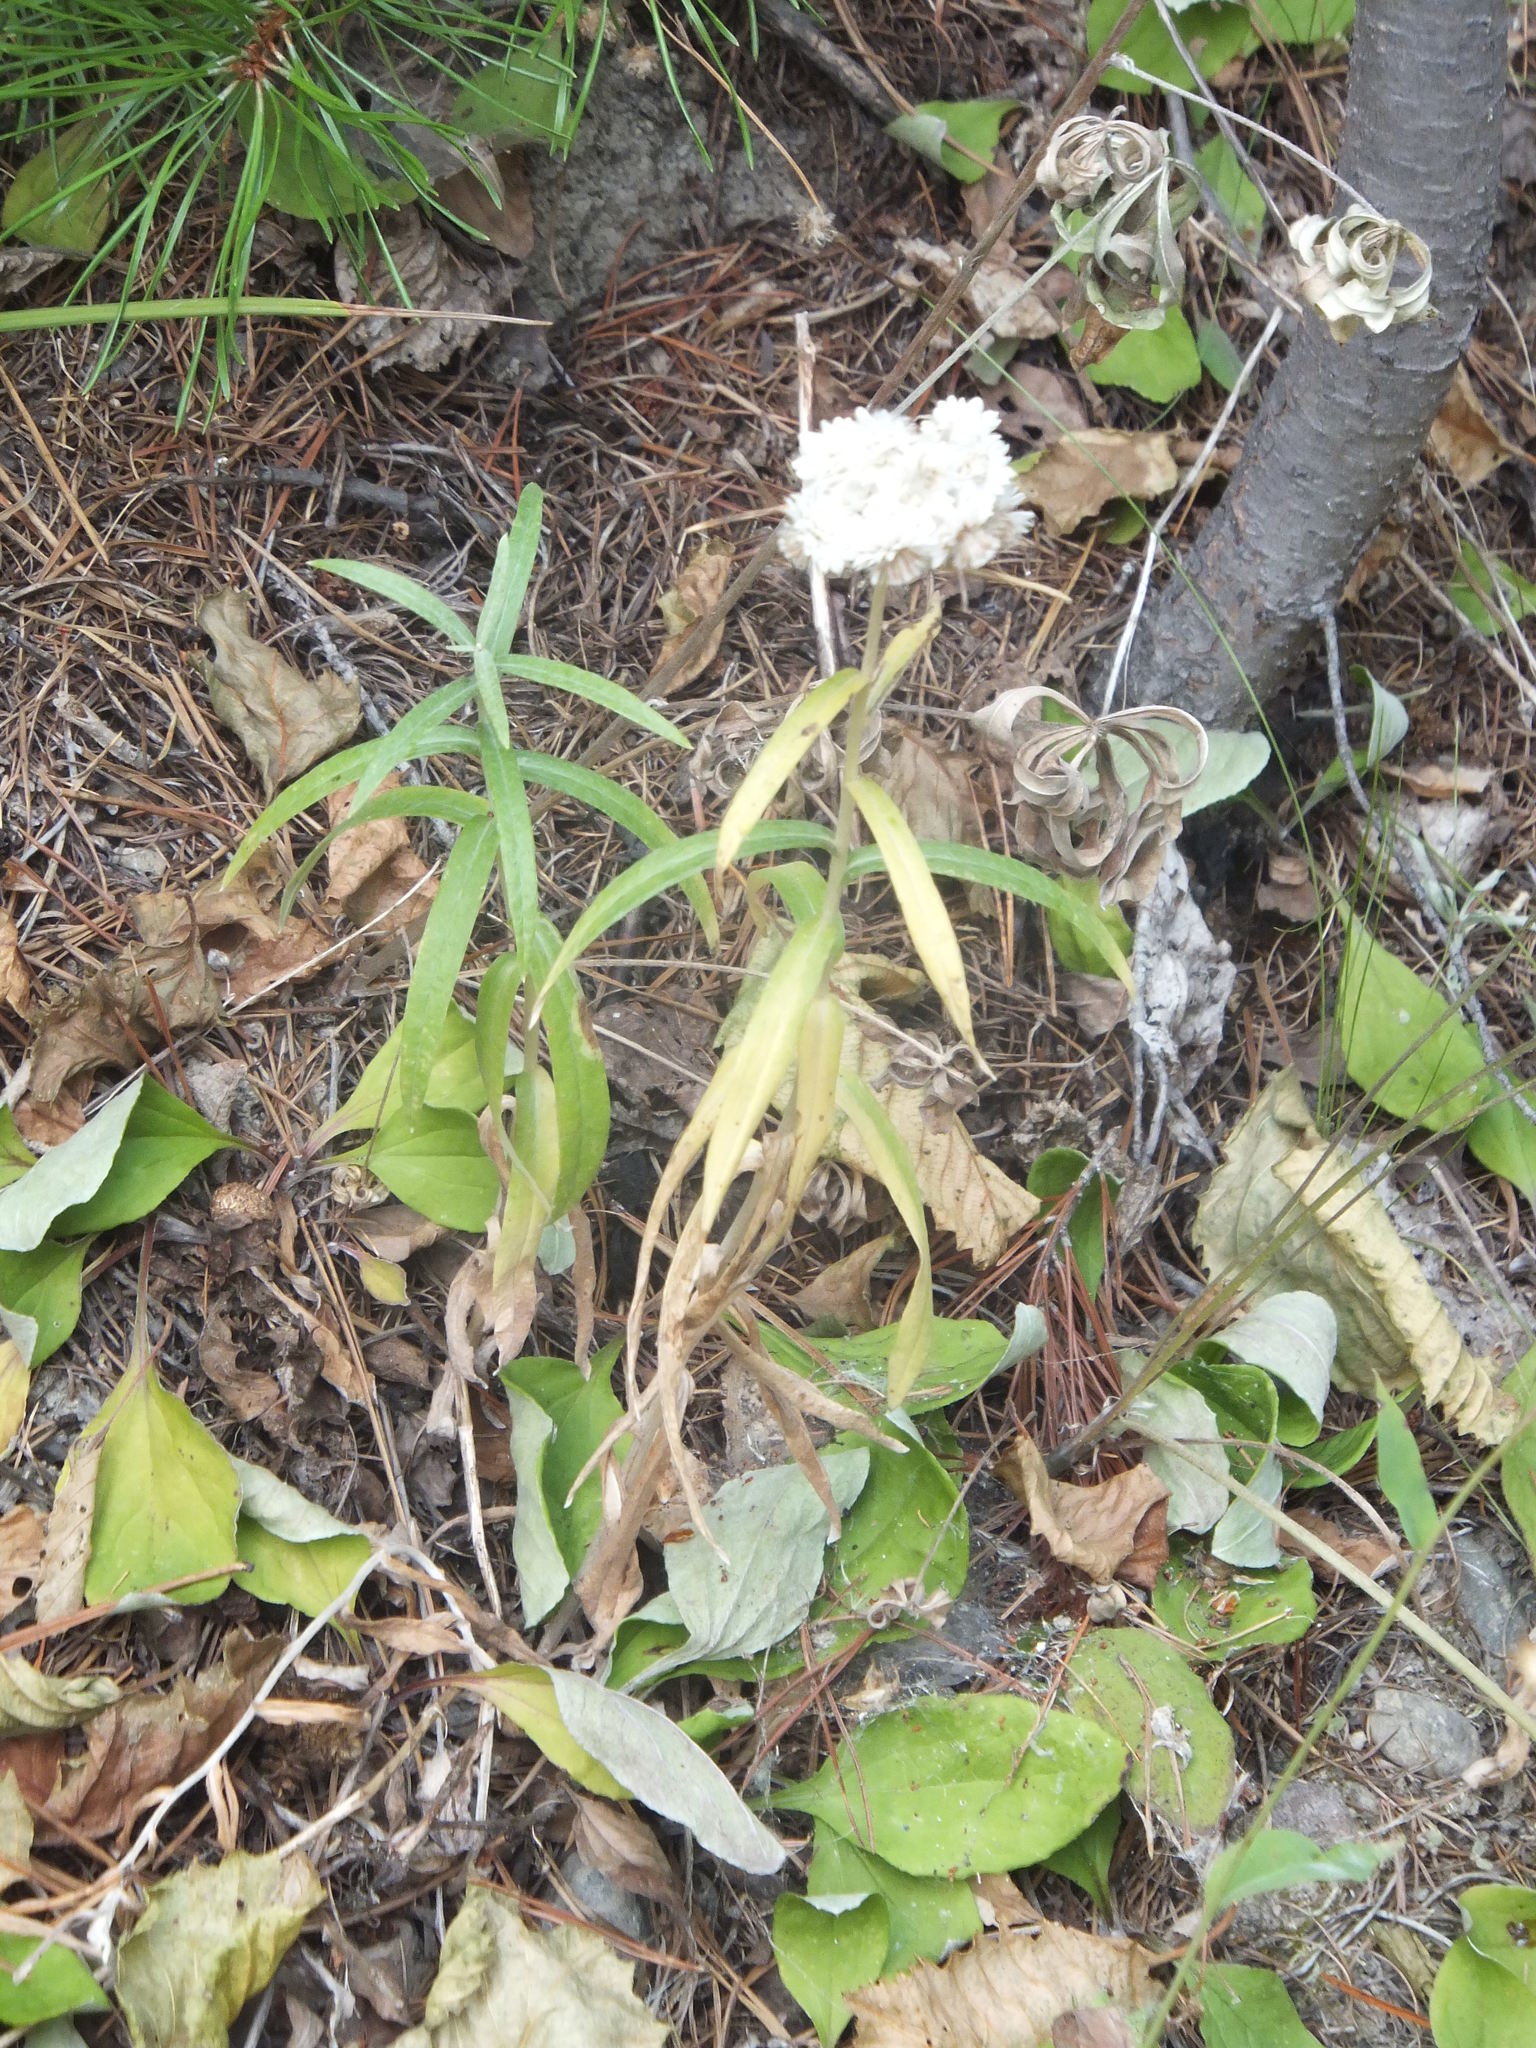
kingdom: Plantae
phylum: Tracheophyta
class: Magnoliopsida
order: Asterales
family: Asteraceae
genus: Anaphalis
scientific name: Anaphalis margaritacea
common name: Pearly everlasting
